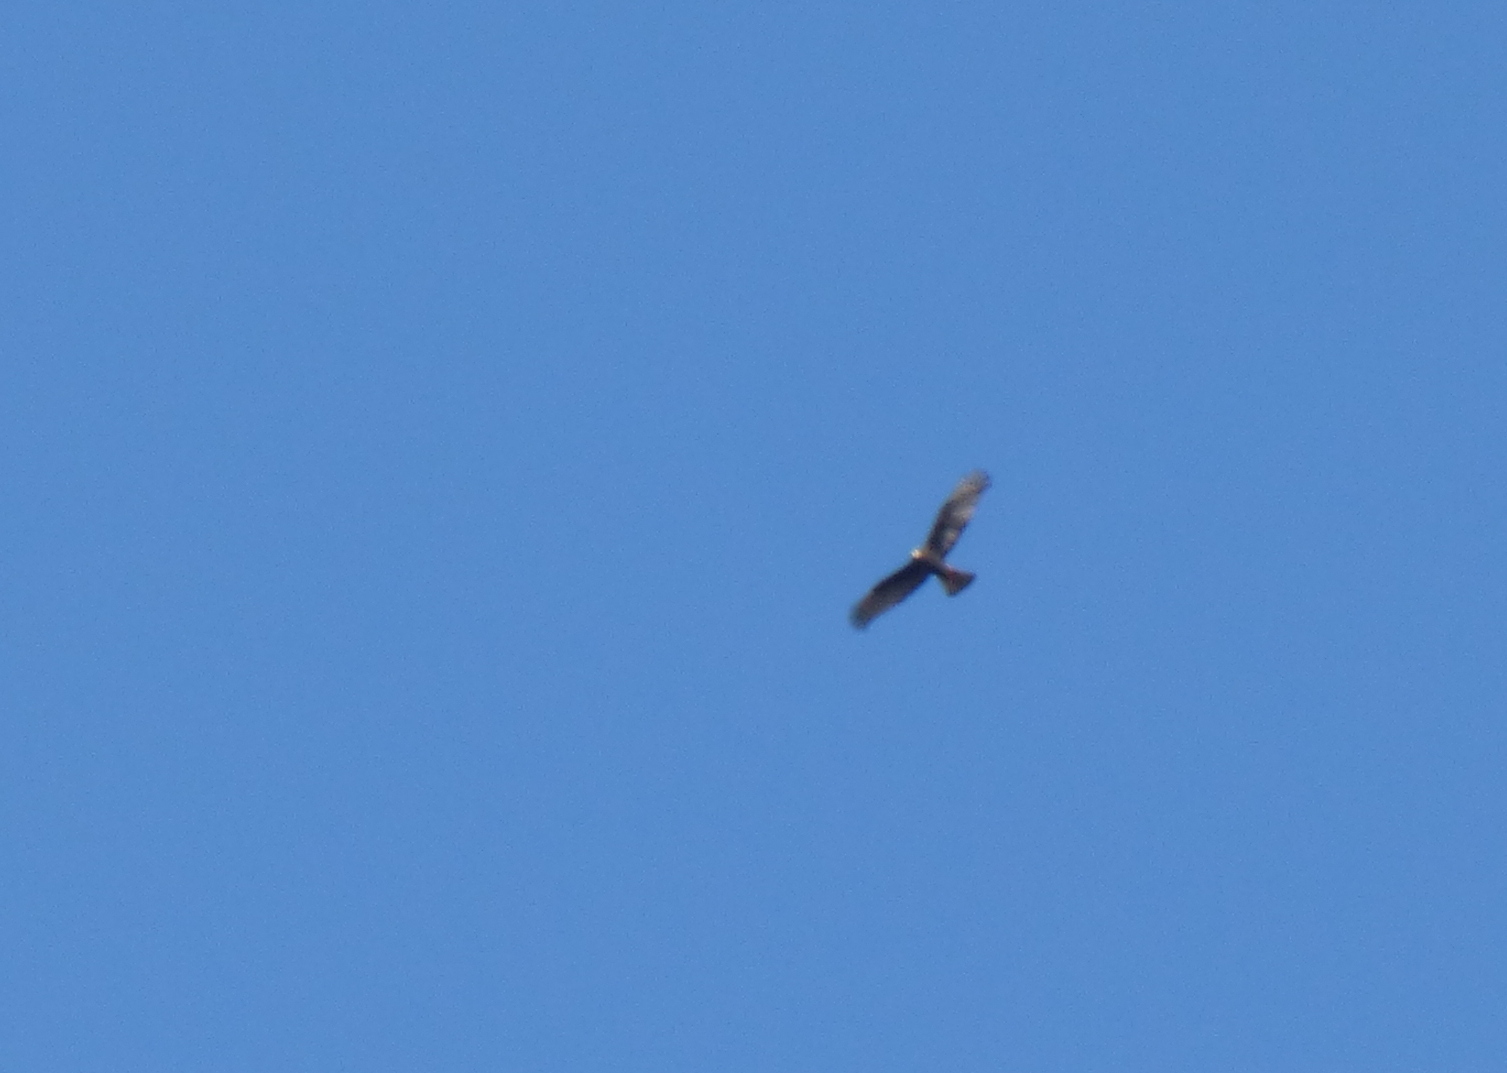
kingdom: Animalia
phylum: Chordata
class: Aves
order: Accipitriformes
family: Accipitridae
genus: Circus
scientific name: Circus buffoni
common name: Long-winged harrier
